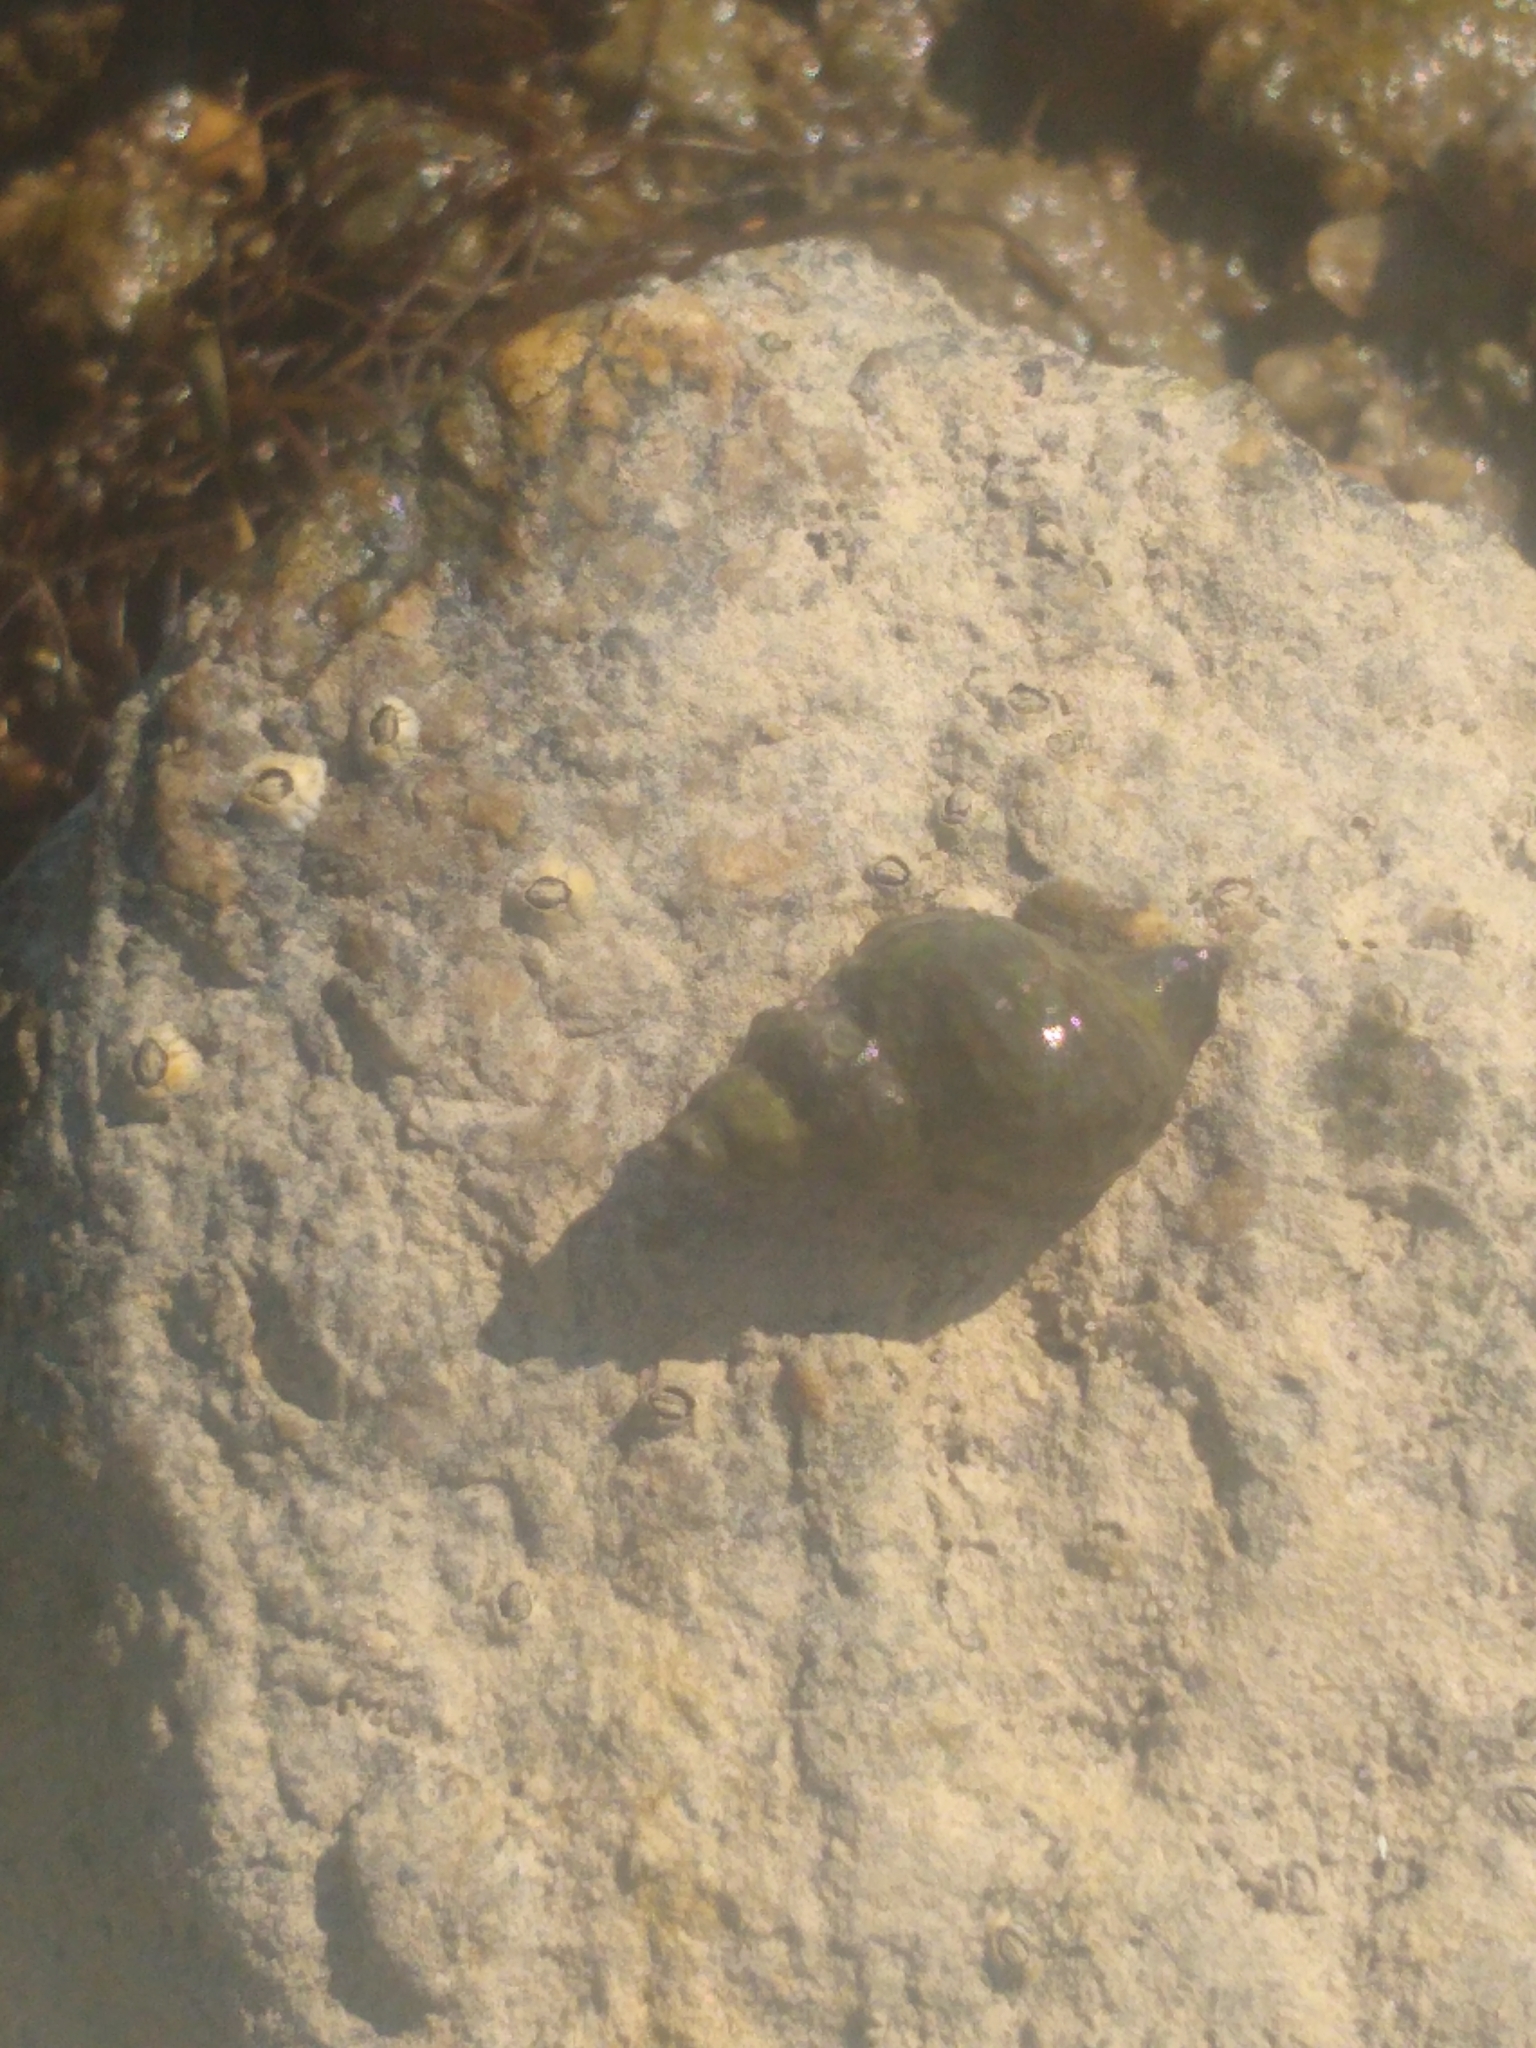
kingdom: Animalia
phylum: Mollusca
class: Gastropoda
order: Neogastropoda
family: Muricidae
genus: Urosalpinx
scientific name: Urosalpinx cinerea
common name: American sting winkle
